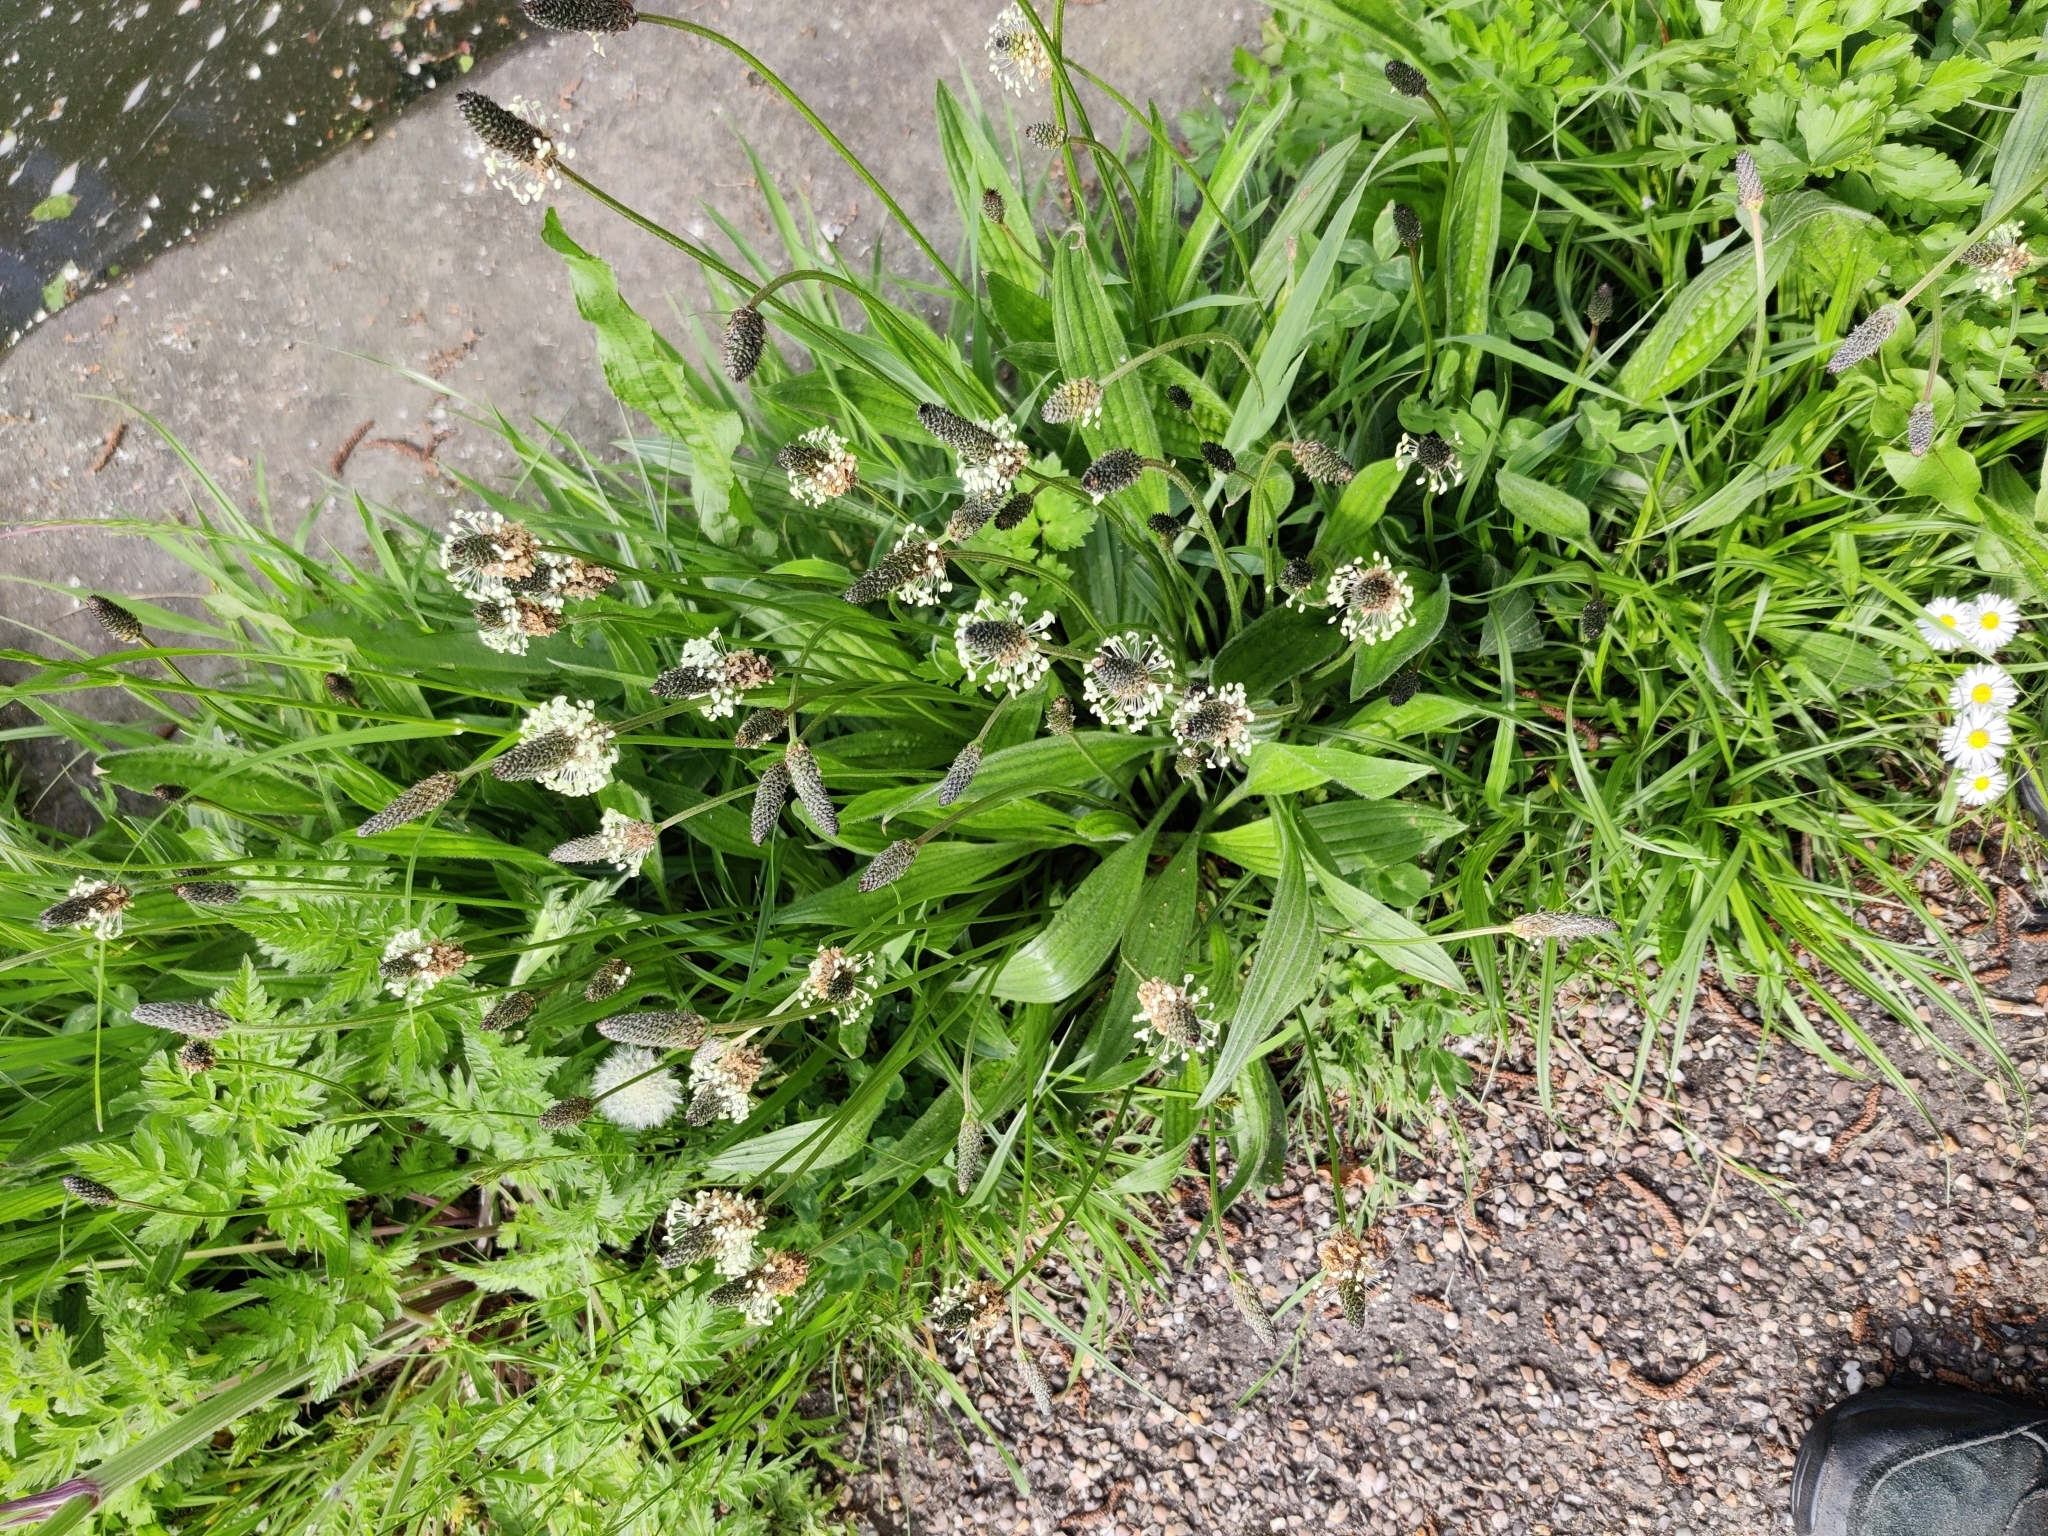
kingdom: Plantae
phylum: Tracheophyta
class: Magnoliopsida
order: Lamiales
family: Plantaginaceae
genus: Plantago
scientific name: Plantago lanceolata
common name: Ribwort plantain
